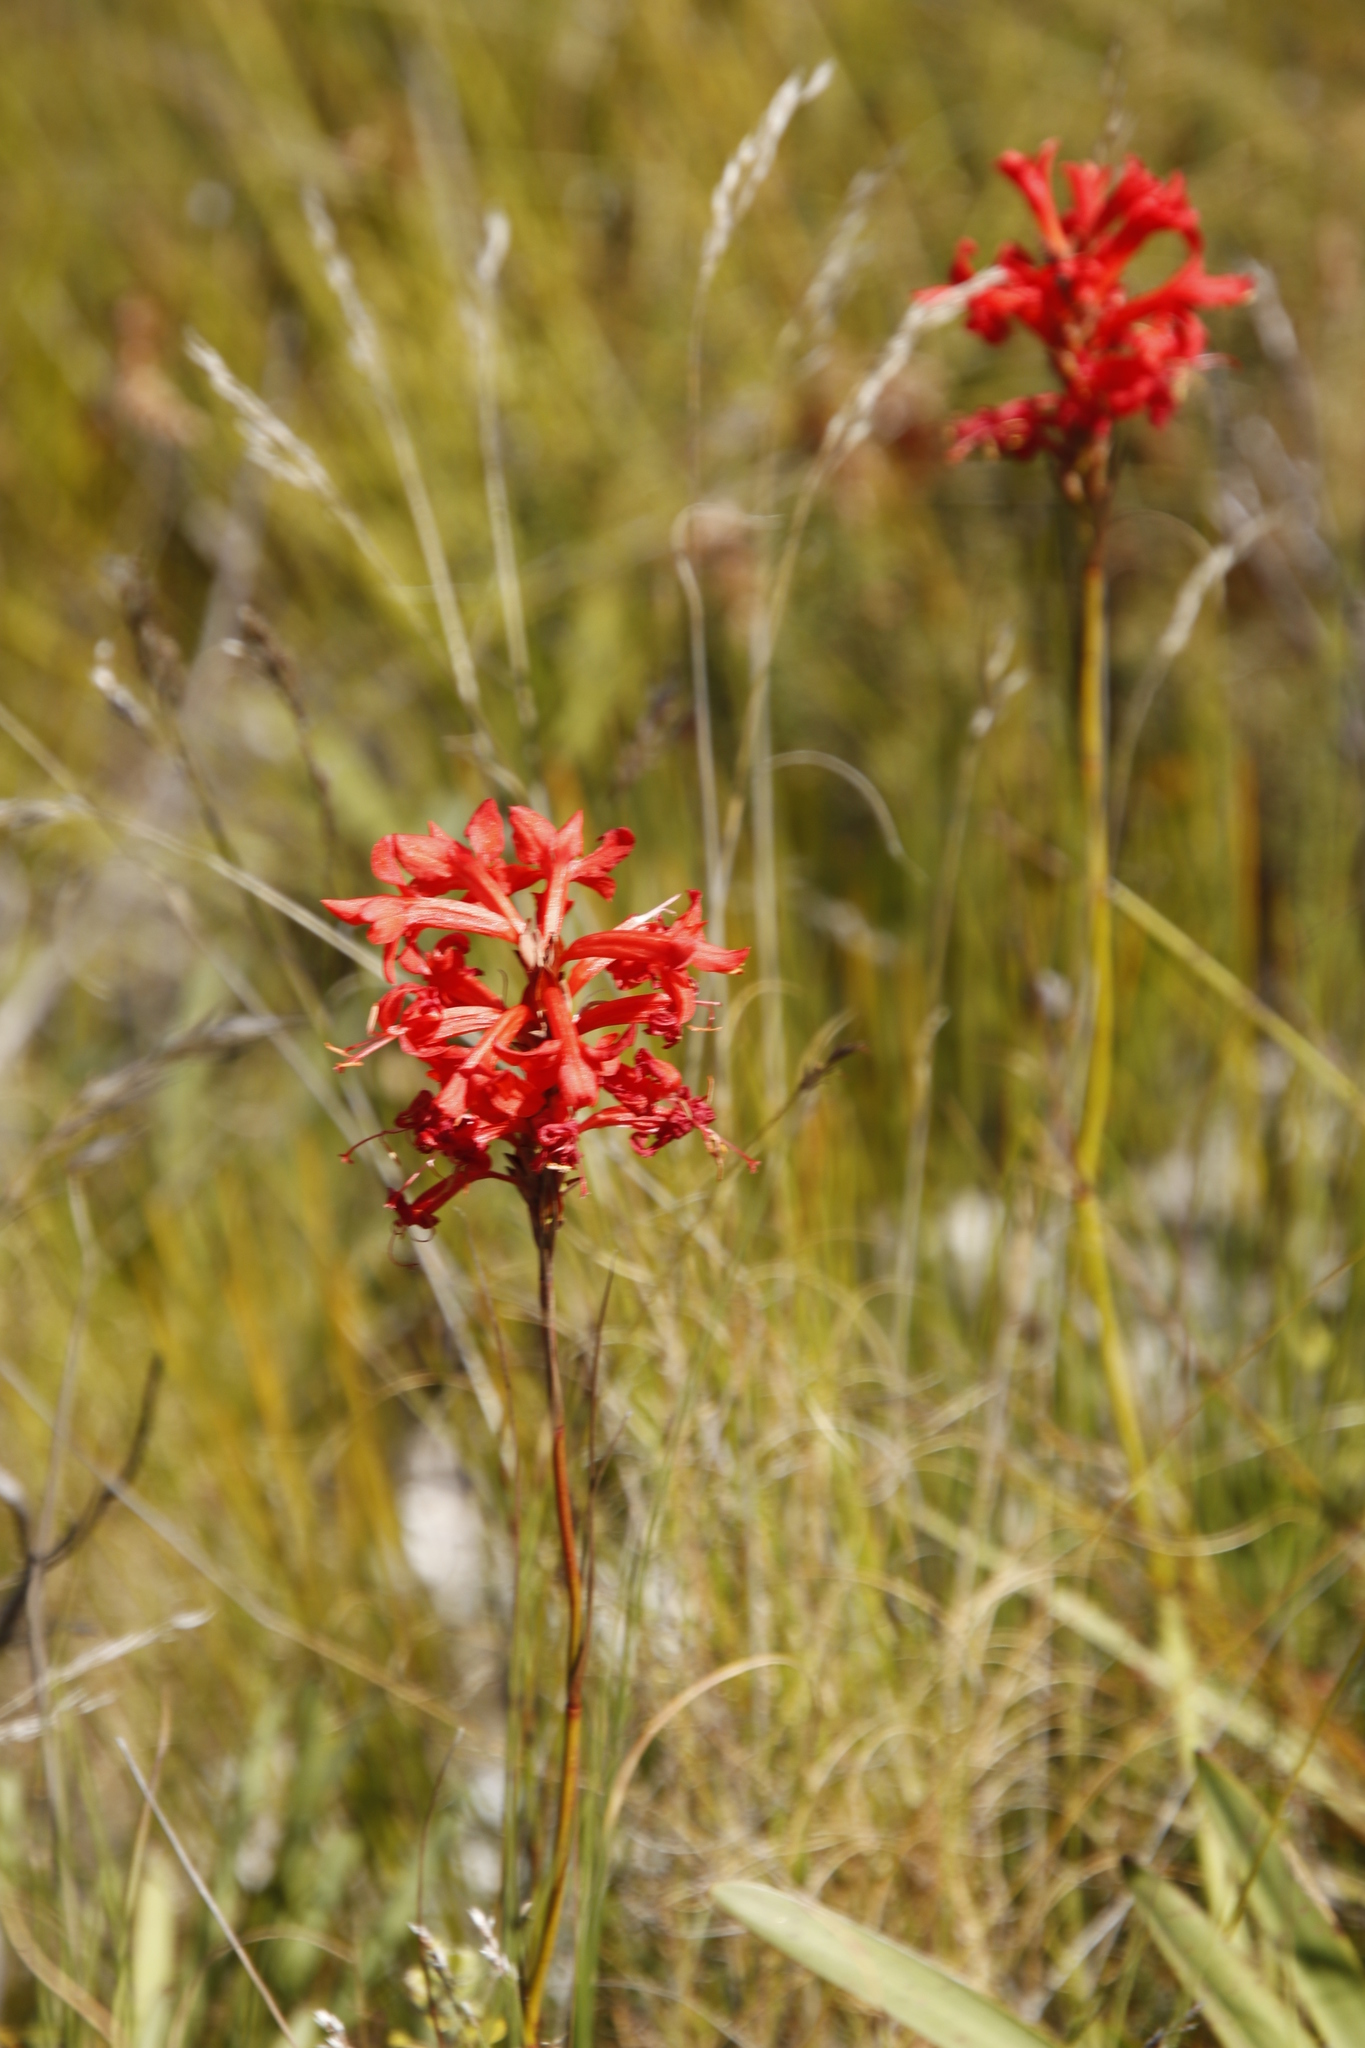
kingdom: Plantae
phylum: Tracheophyta
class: Liliopsida
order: Asparagales
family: Iridaceae
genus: Tritoniopsis
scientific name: Tritoniopsis triticea
